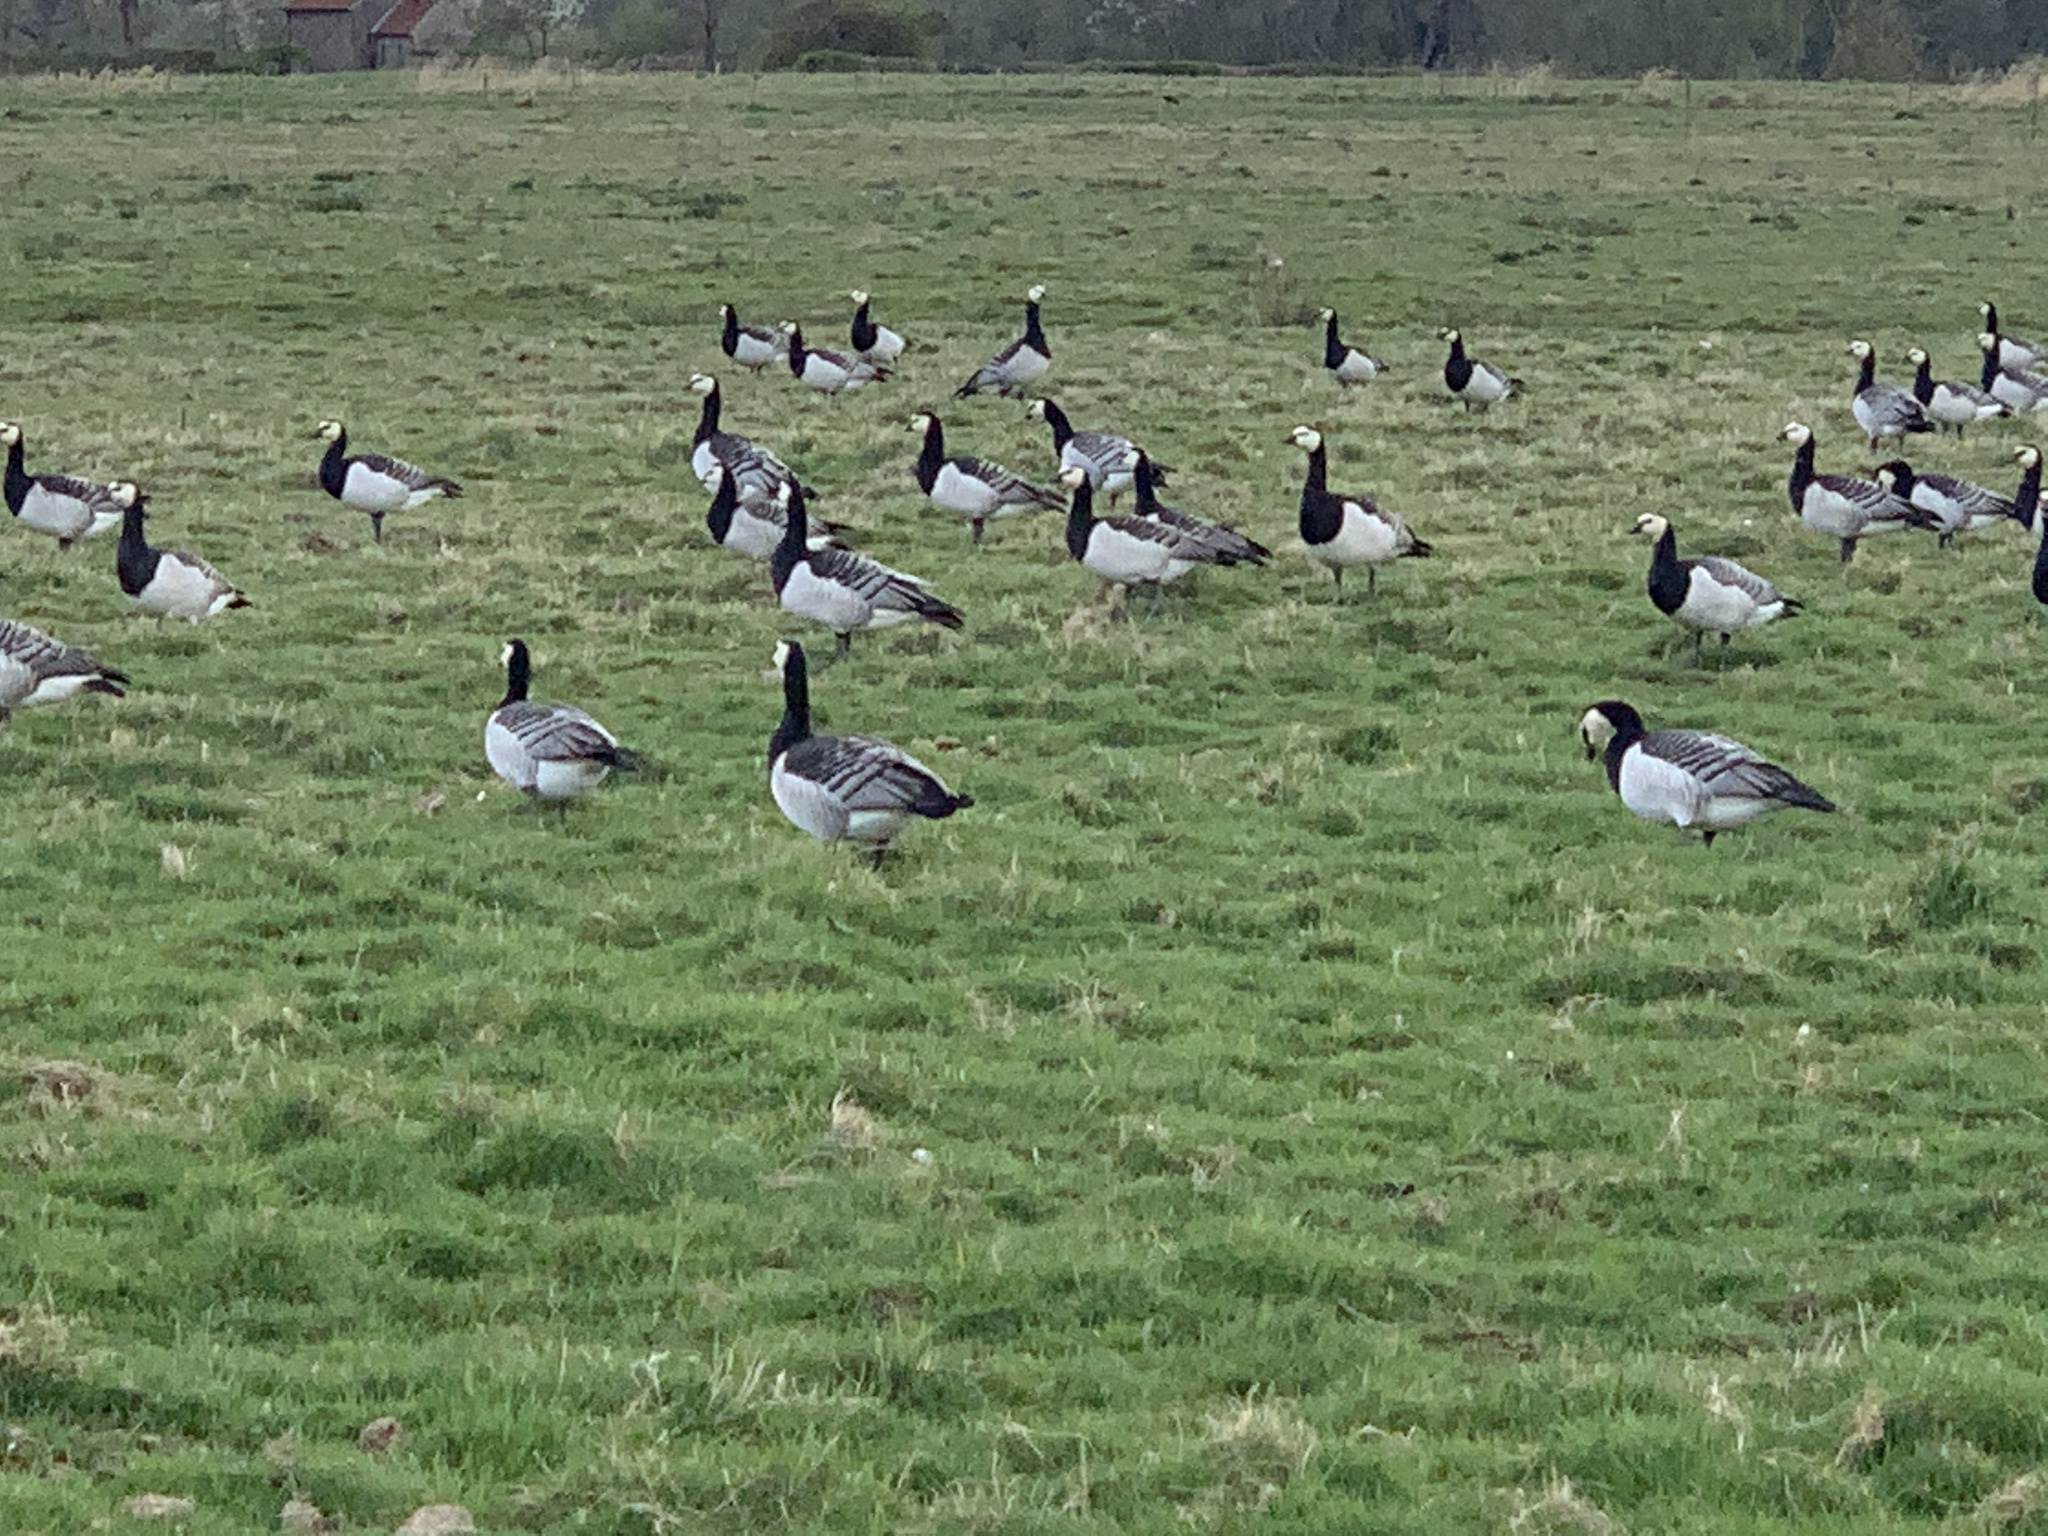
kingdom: Animalia
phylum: Chordata
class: Aves
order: Anseriformes
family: Anatidae
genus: Branta
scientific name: Branta leucopsis
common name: Barnacle goose
